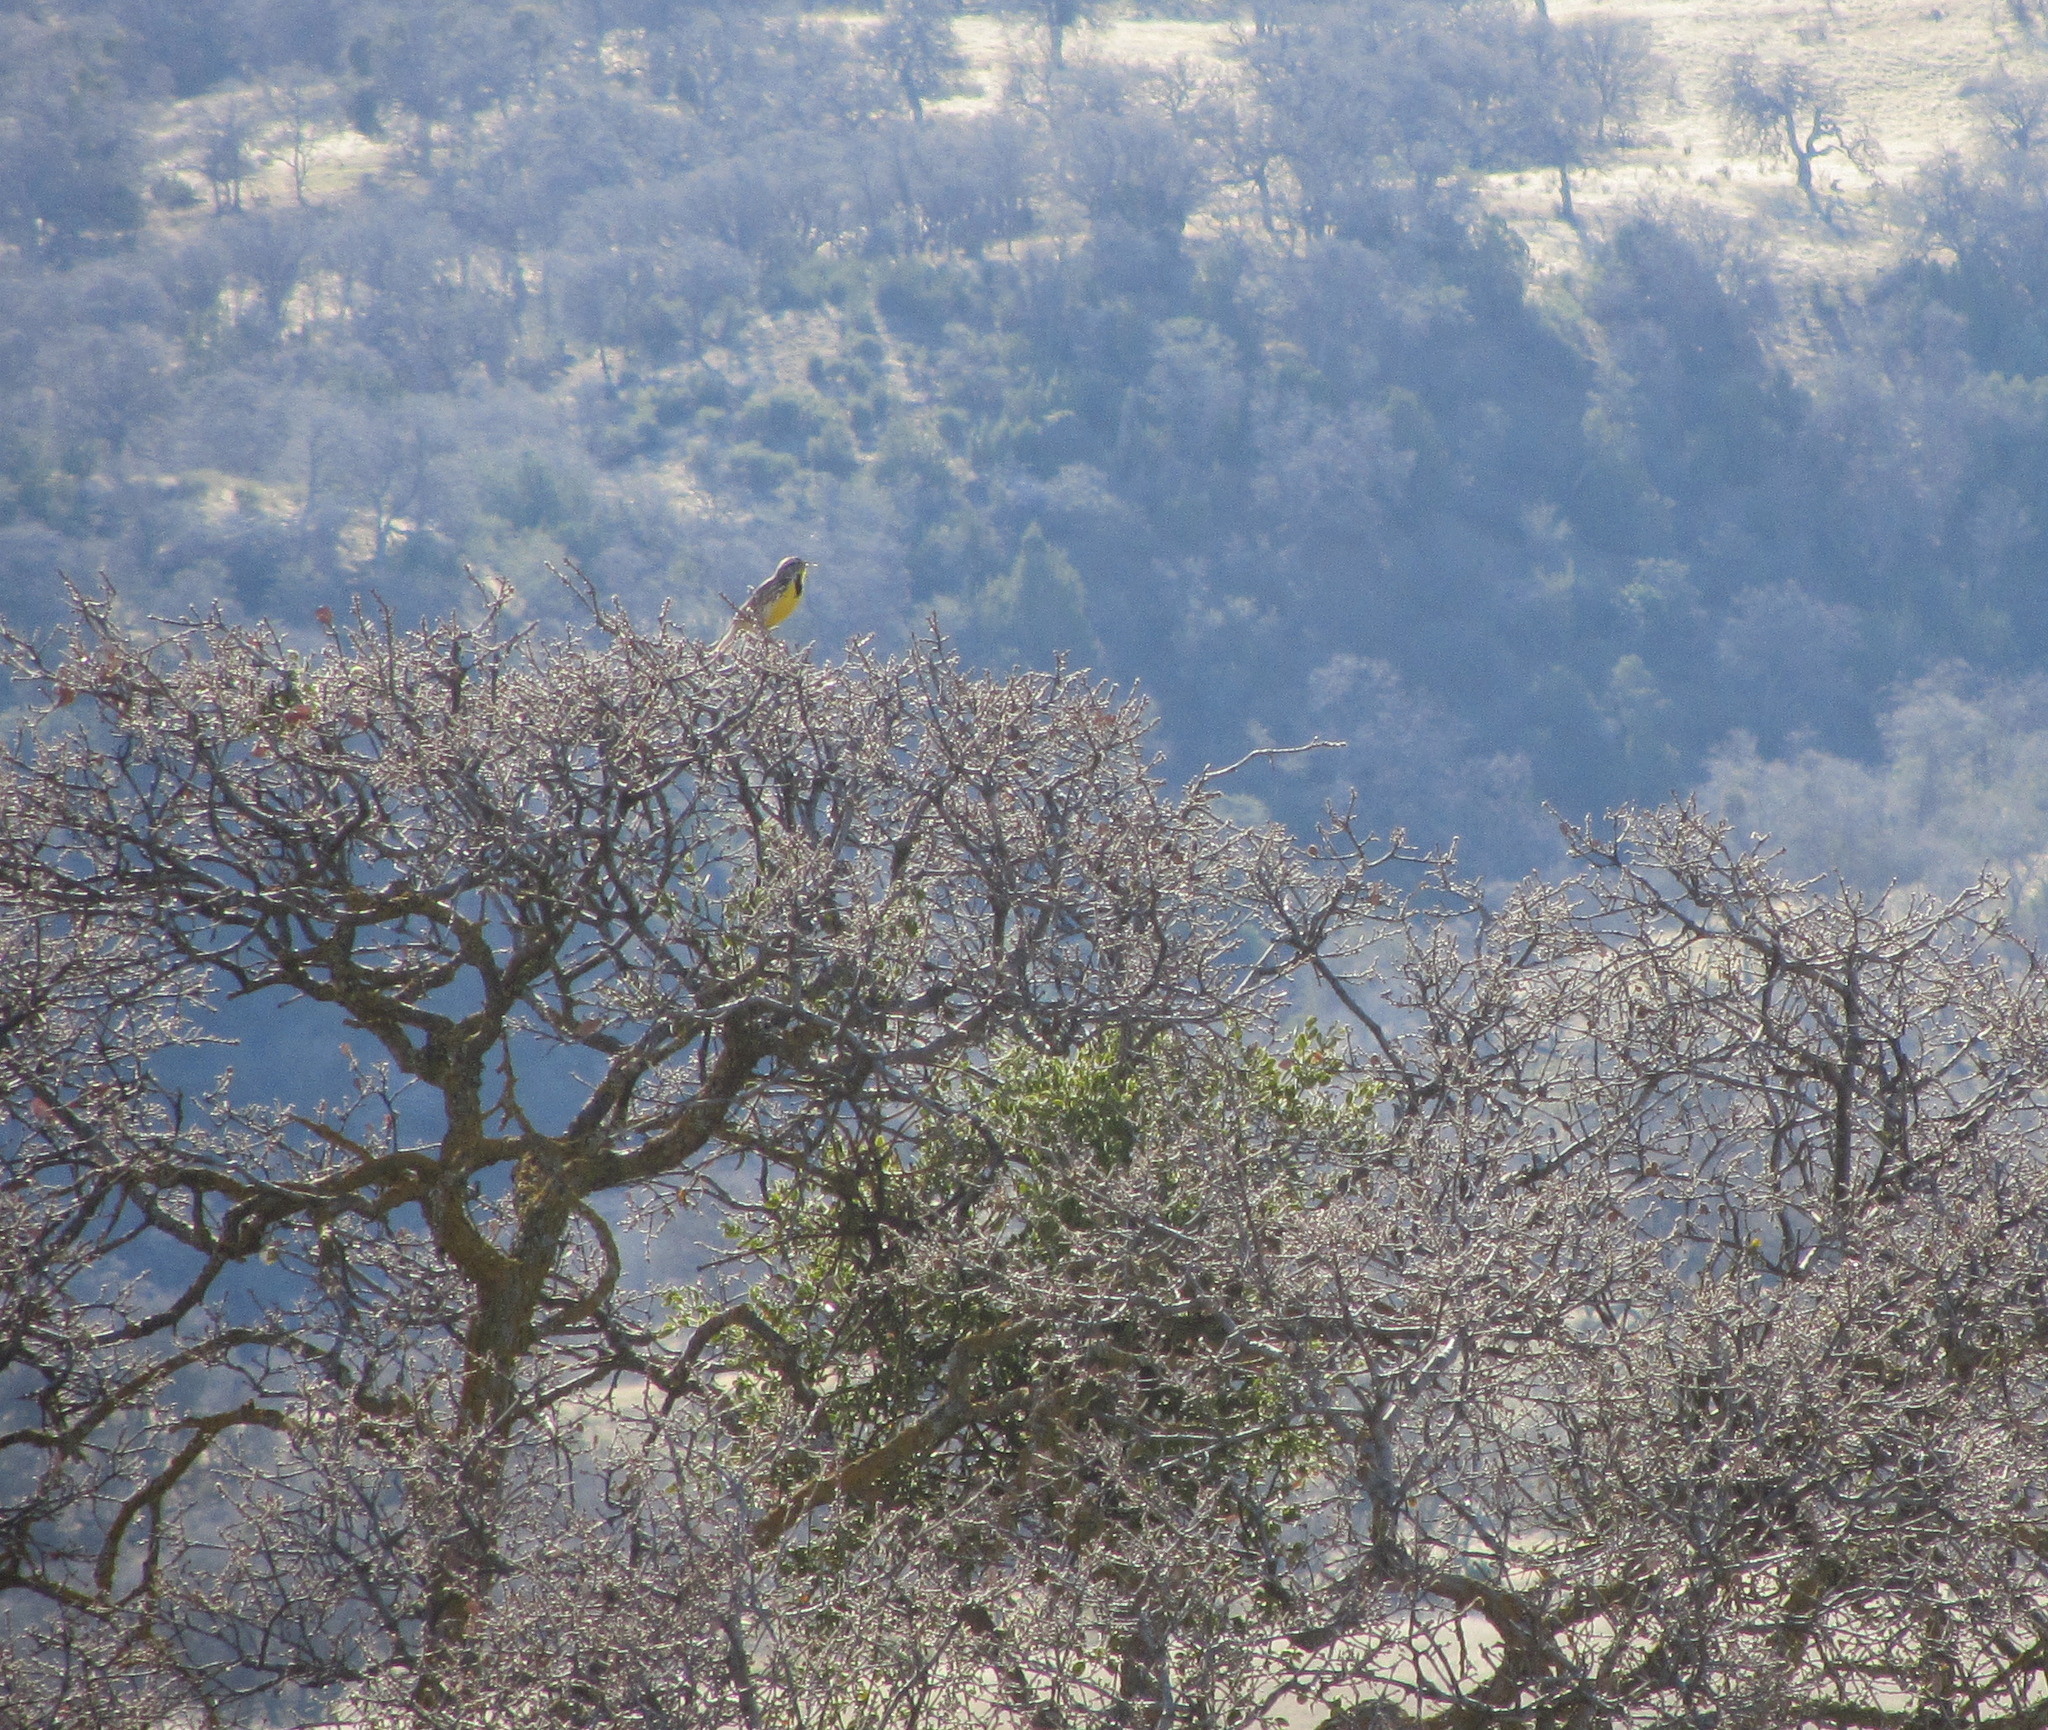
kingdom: Animalia
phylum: Chordata
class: Aves
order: Passeriformes
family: Icteridae
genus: Sturnella
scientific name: Sturnella neglecta
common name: Western meadowlark
